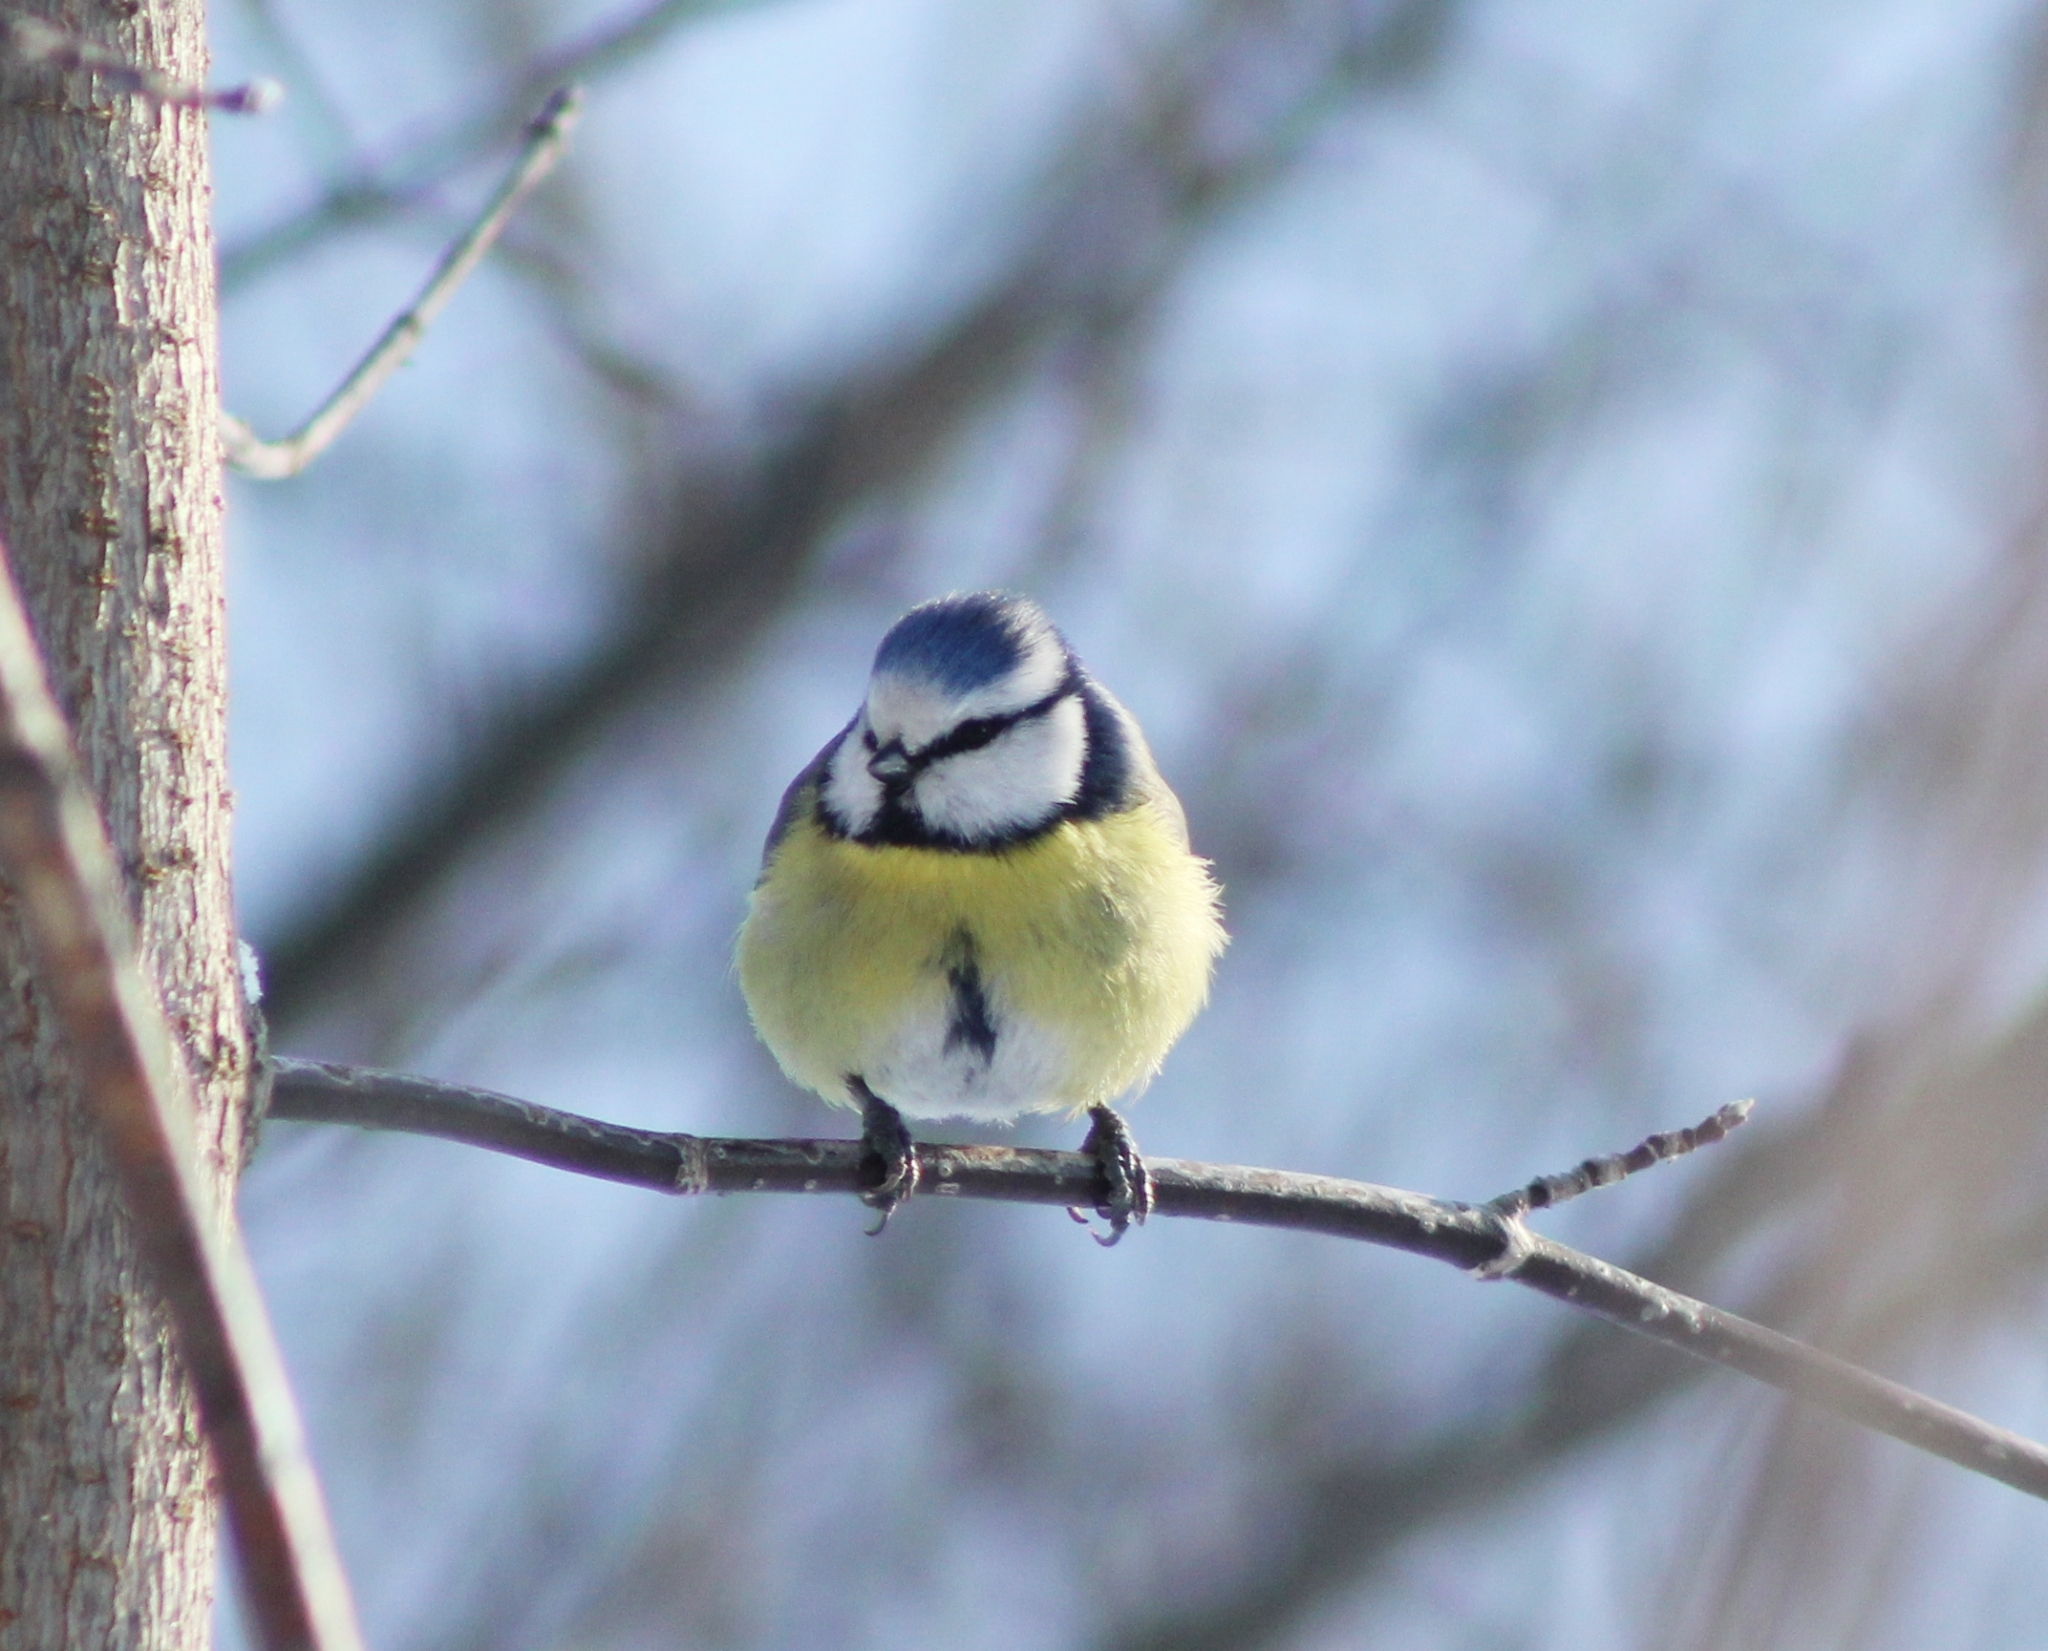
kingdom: Animalia
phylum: Chordata
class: Aves
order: Passeriformes
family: Paridae
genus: Cyanistes
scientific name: Cyanistes caeruleus
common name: Eurasian blue tit
